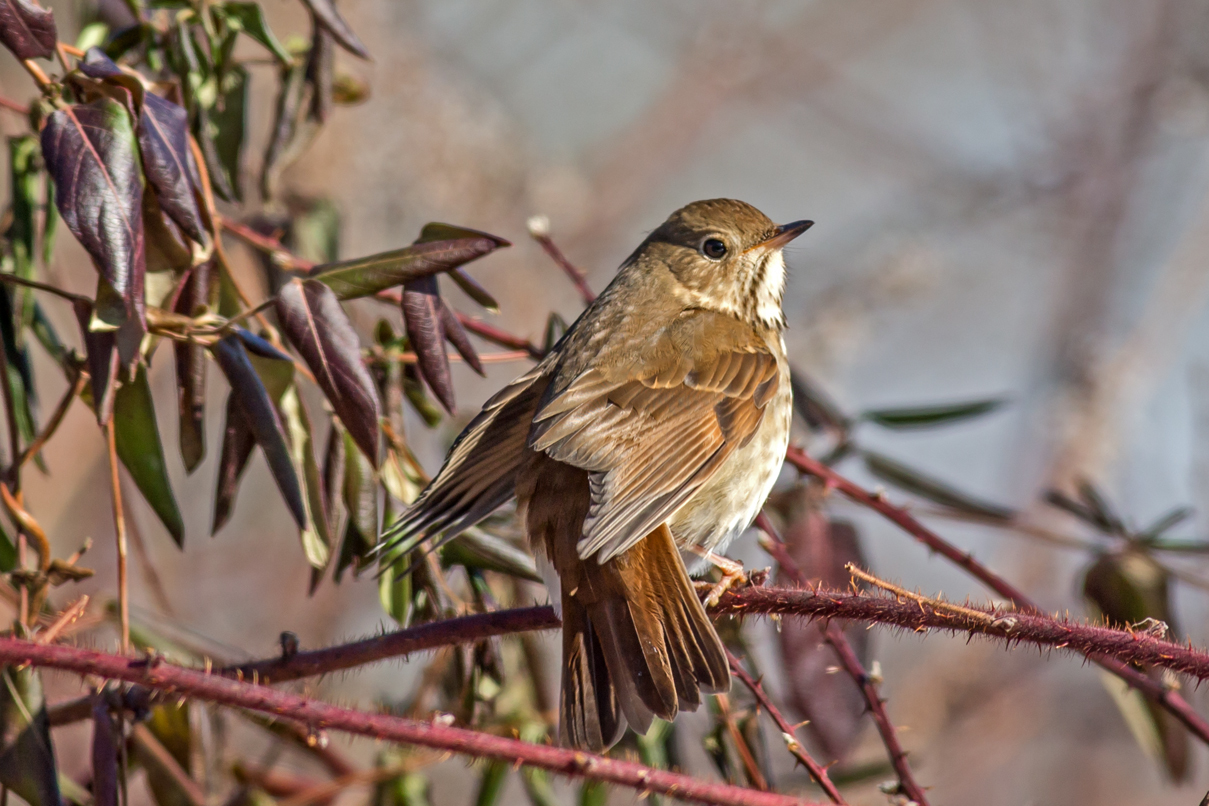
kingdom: Animalia
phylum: Chordata
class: Aves
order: Passeriformes
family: Turdidae
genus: Catharus
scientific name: Catharus guttatus
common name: Hermit thrush
